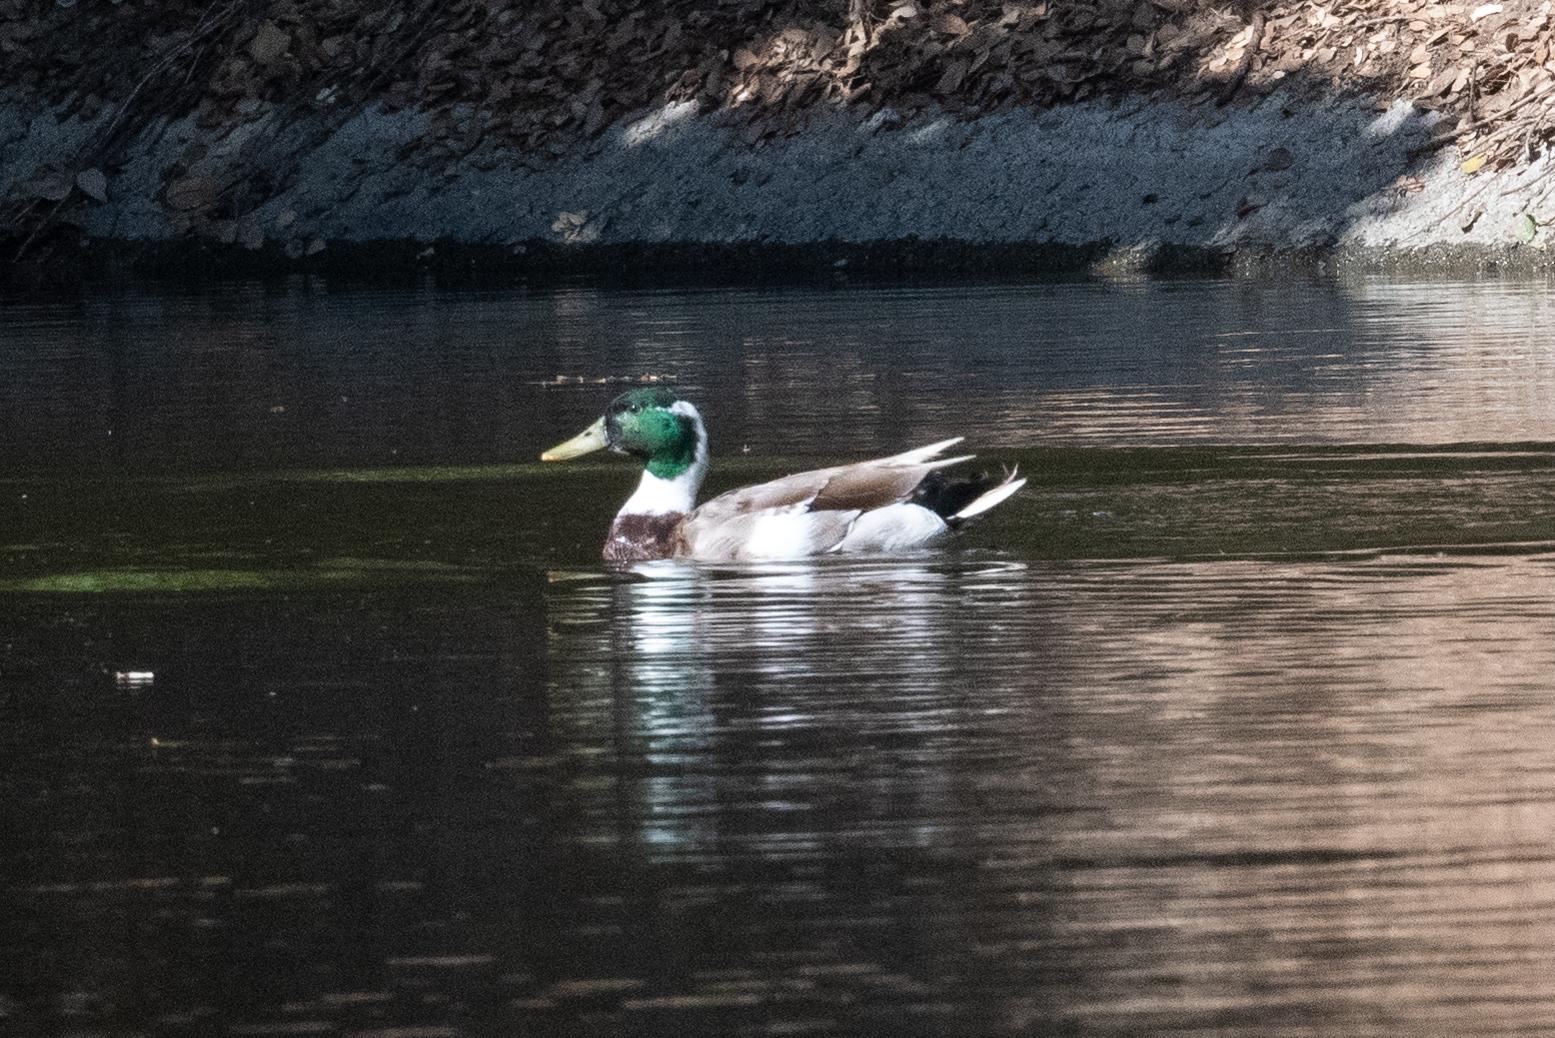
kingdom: Animalia
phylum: Chordata
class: Aves
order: Anseriformes
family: Anatidae
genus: Anas
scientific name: Anas platyrhynchos
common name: Mallard
